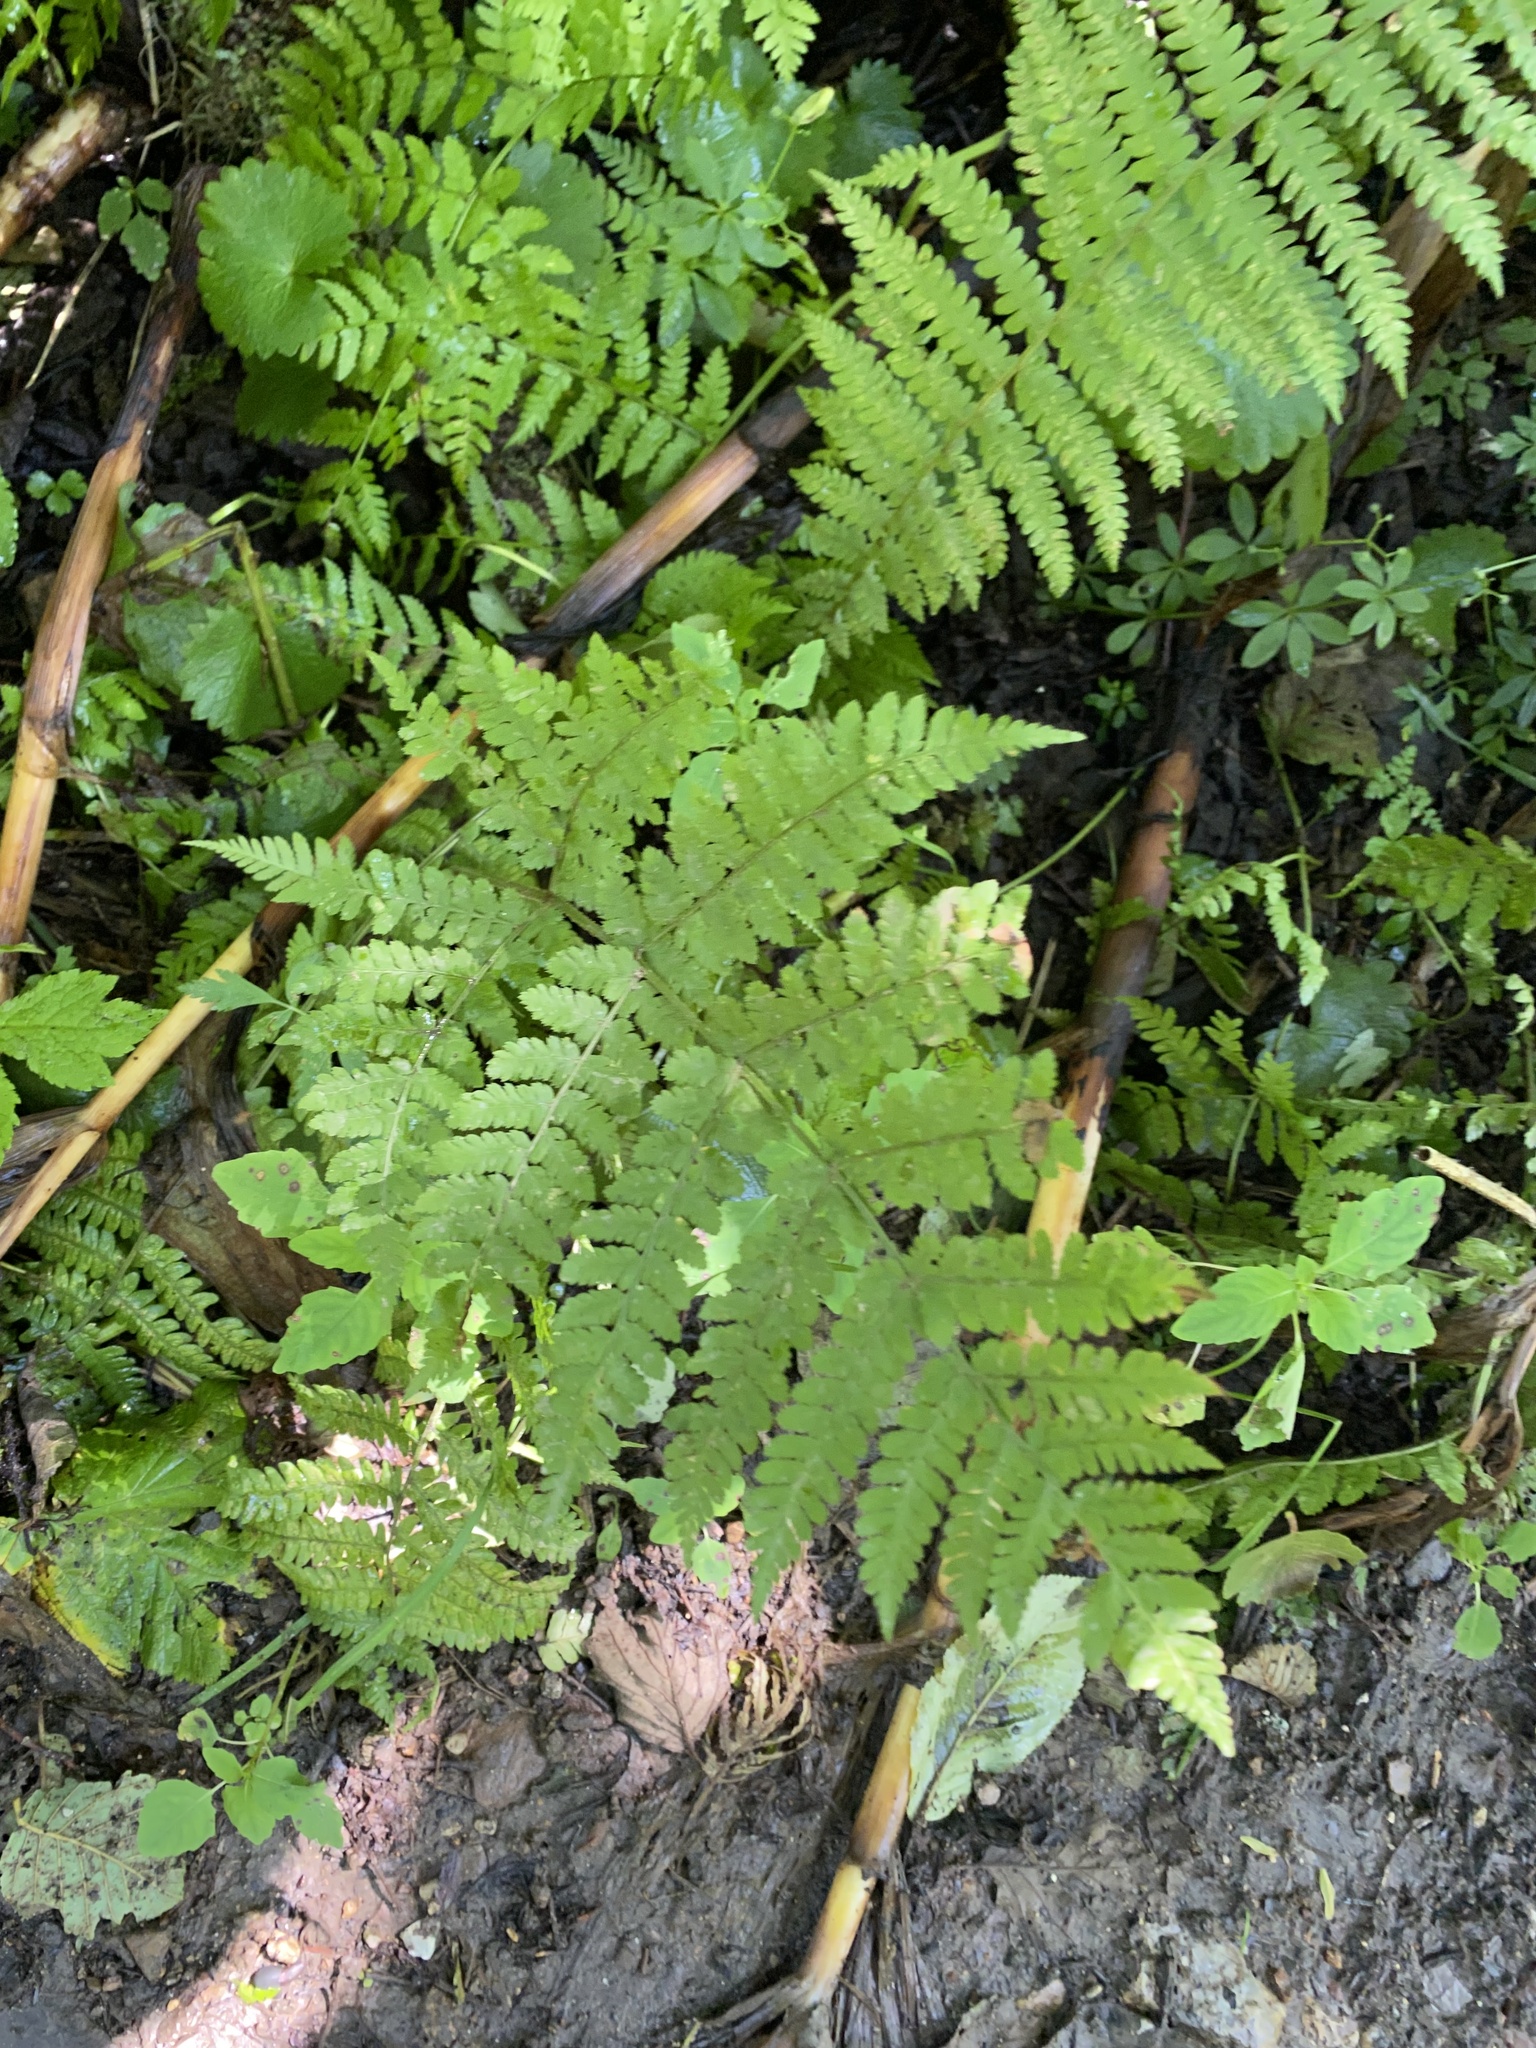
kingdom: Plantae
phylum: Tracheophyta
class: Polypodiopsida
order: Polypodiales
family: Dryopteridaceae
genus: Dryopteris
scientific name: Dryopteris expansa
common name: Northern buckler fern
